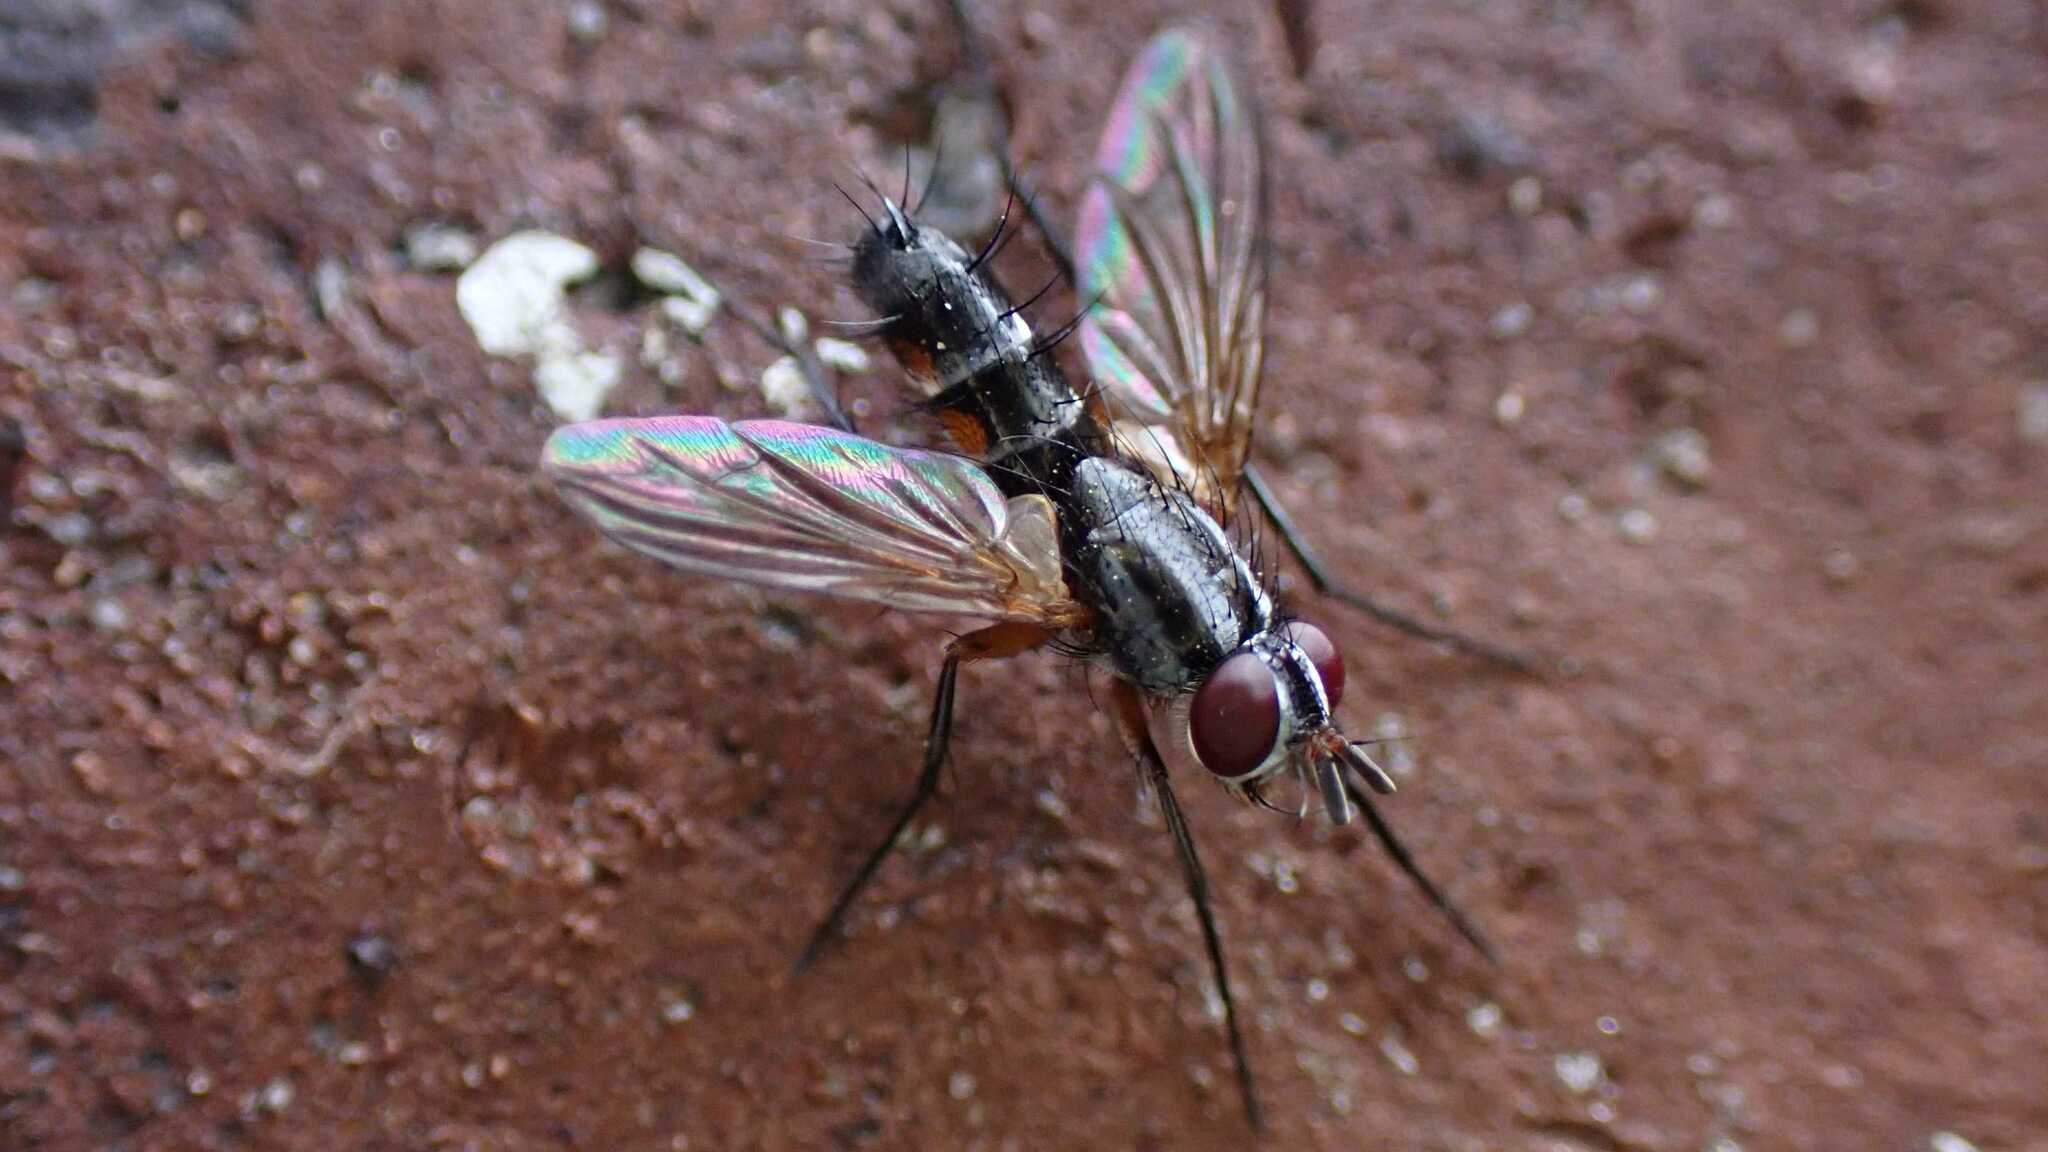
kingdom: Animalia
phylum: Arthropoda
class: Insecta
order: Diptera
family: Tachinidae
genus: Mintho
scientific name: Mintho rufiventris
